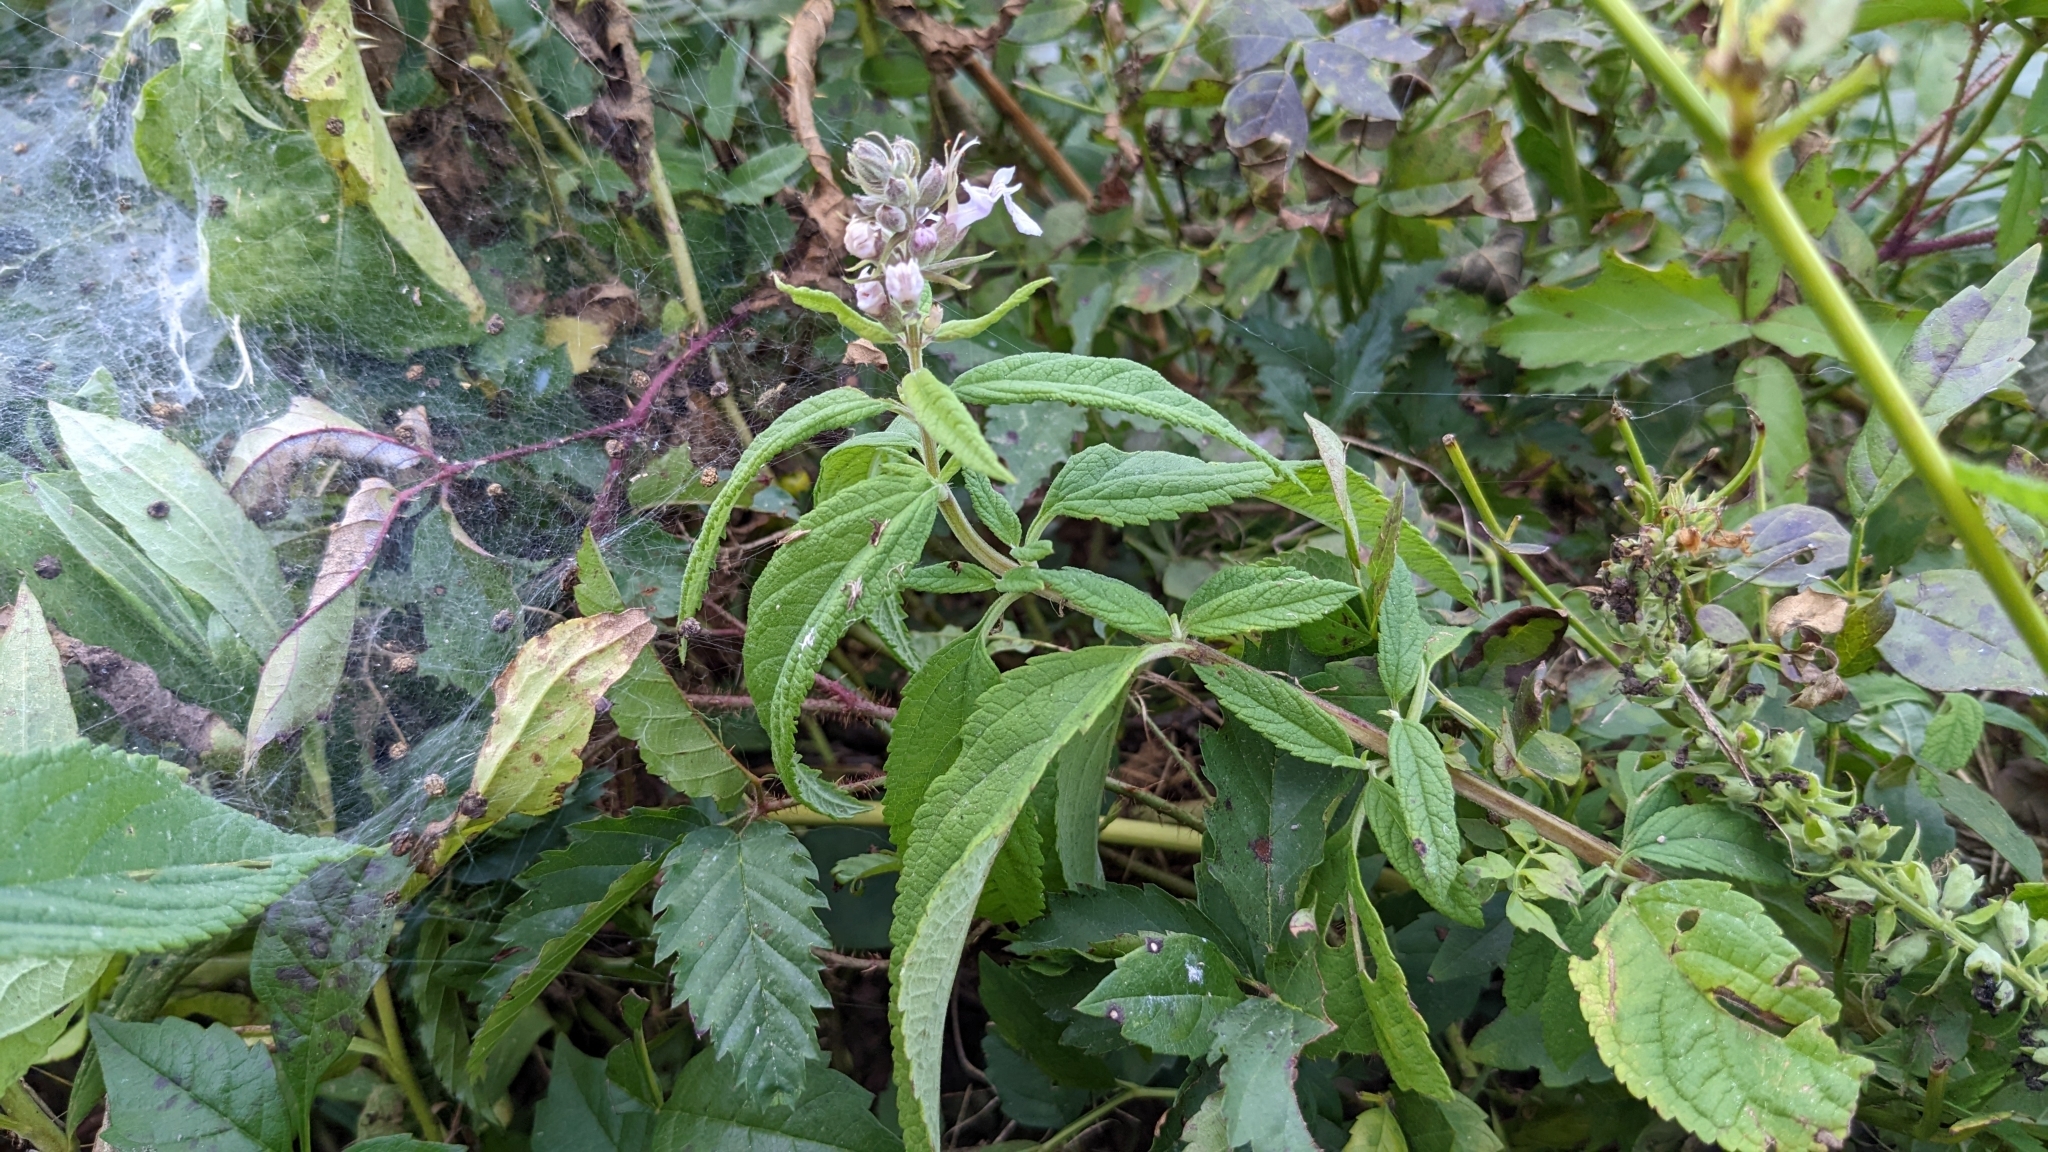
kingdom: Plantae
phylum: Tracheophyta
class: Magnoliopsida
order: Lamiales
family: Lamiaceae
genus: Teucrium
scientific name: Teucrium canadense
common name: American germander
